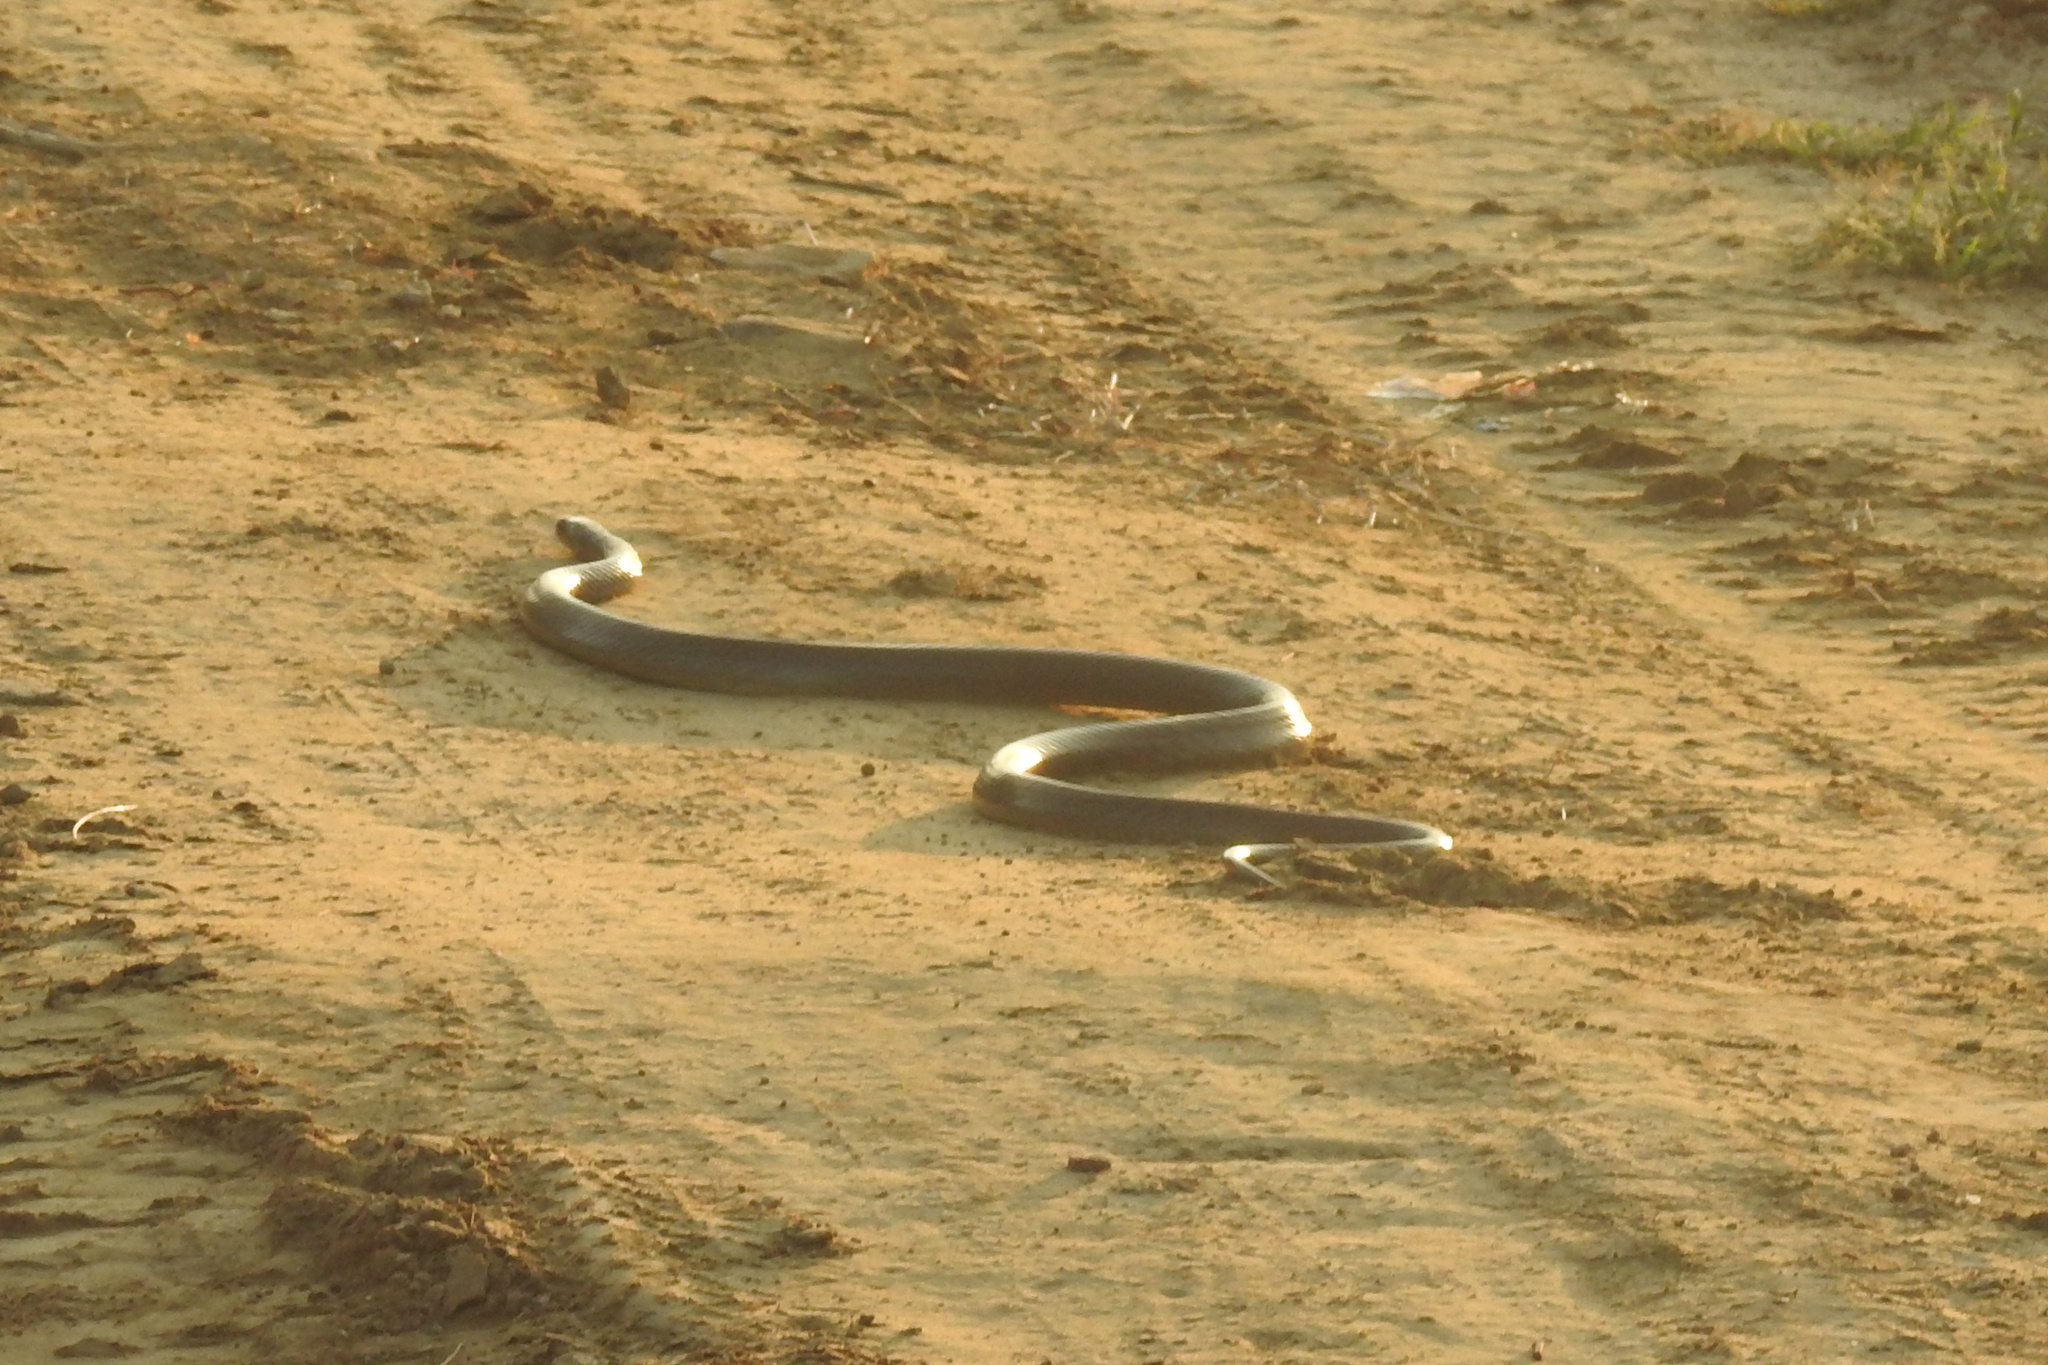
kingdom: Animalia
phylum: Chordata
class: Squamata
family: Colubridae
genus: Ptyas
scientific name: Ptyas mucosa
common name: Oriental ratsnake
